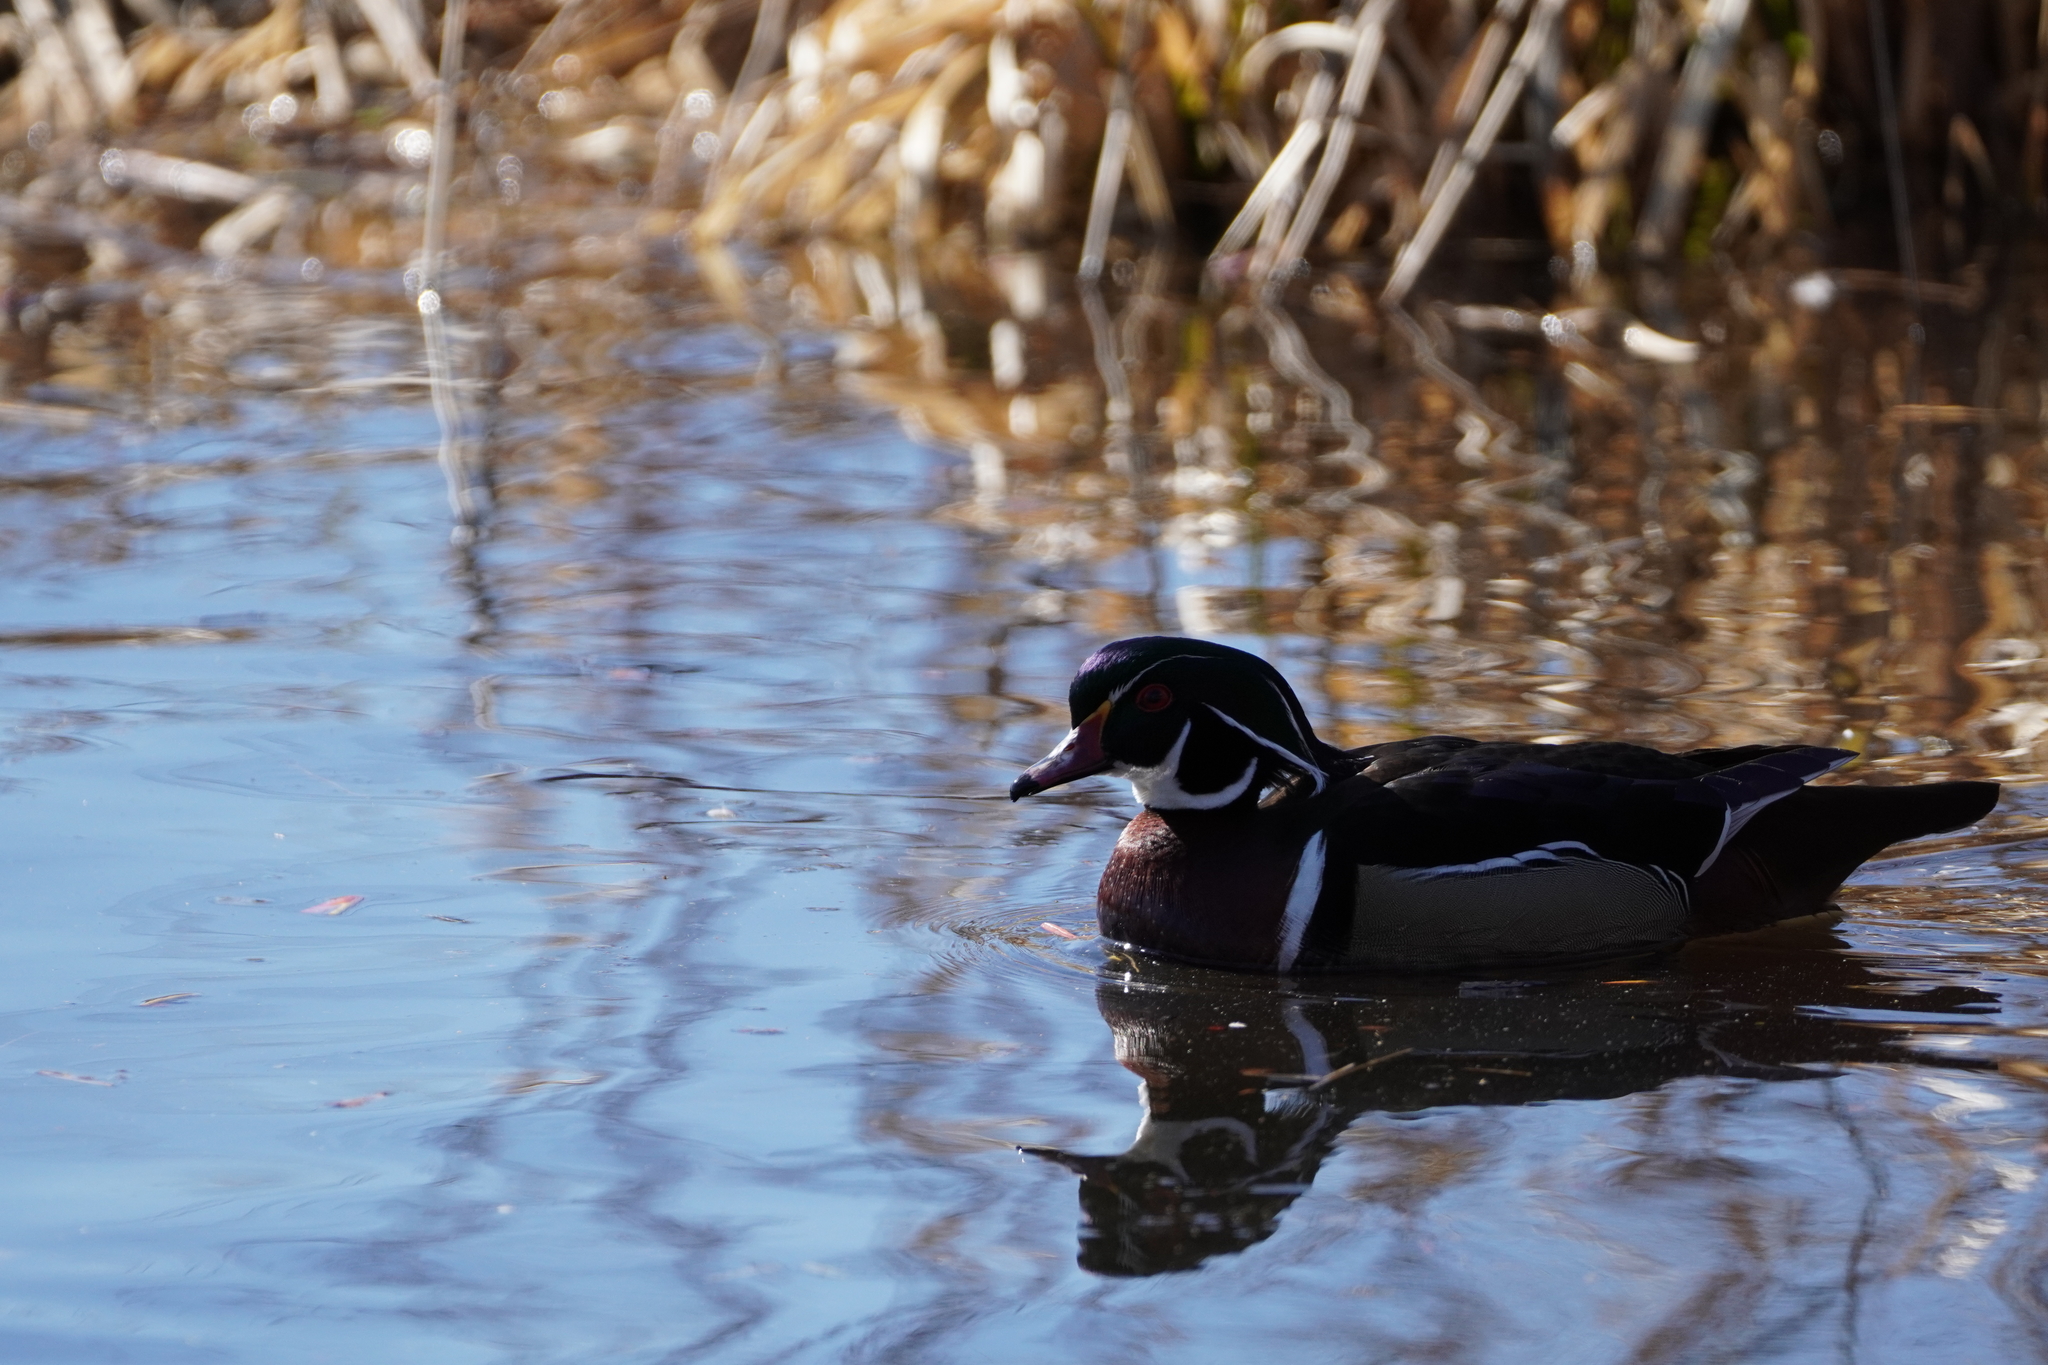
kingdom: Animalia
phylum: Chordata
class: Aves
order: Anseriformes
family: Anatidae
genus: Aix
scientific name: Aix sponsa
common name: Wood duck
